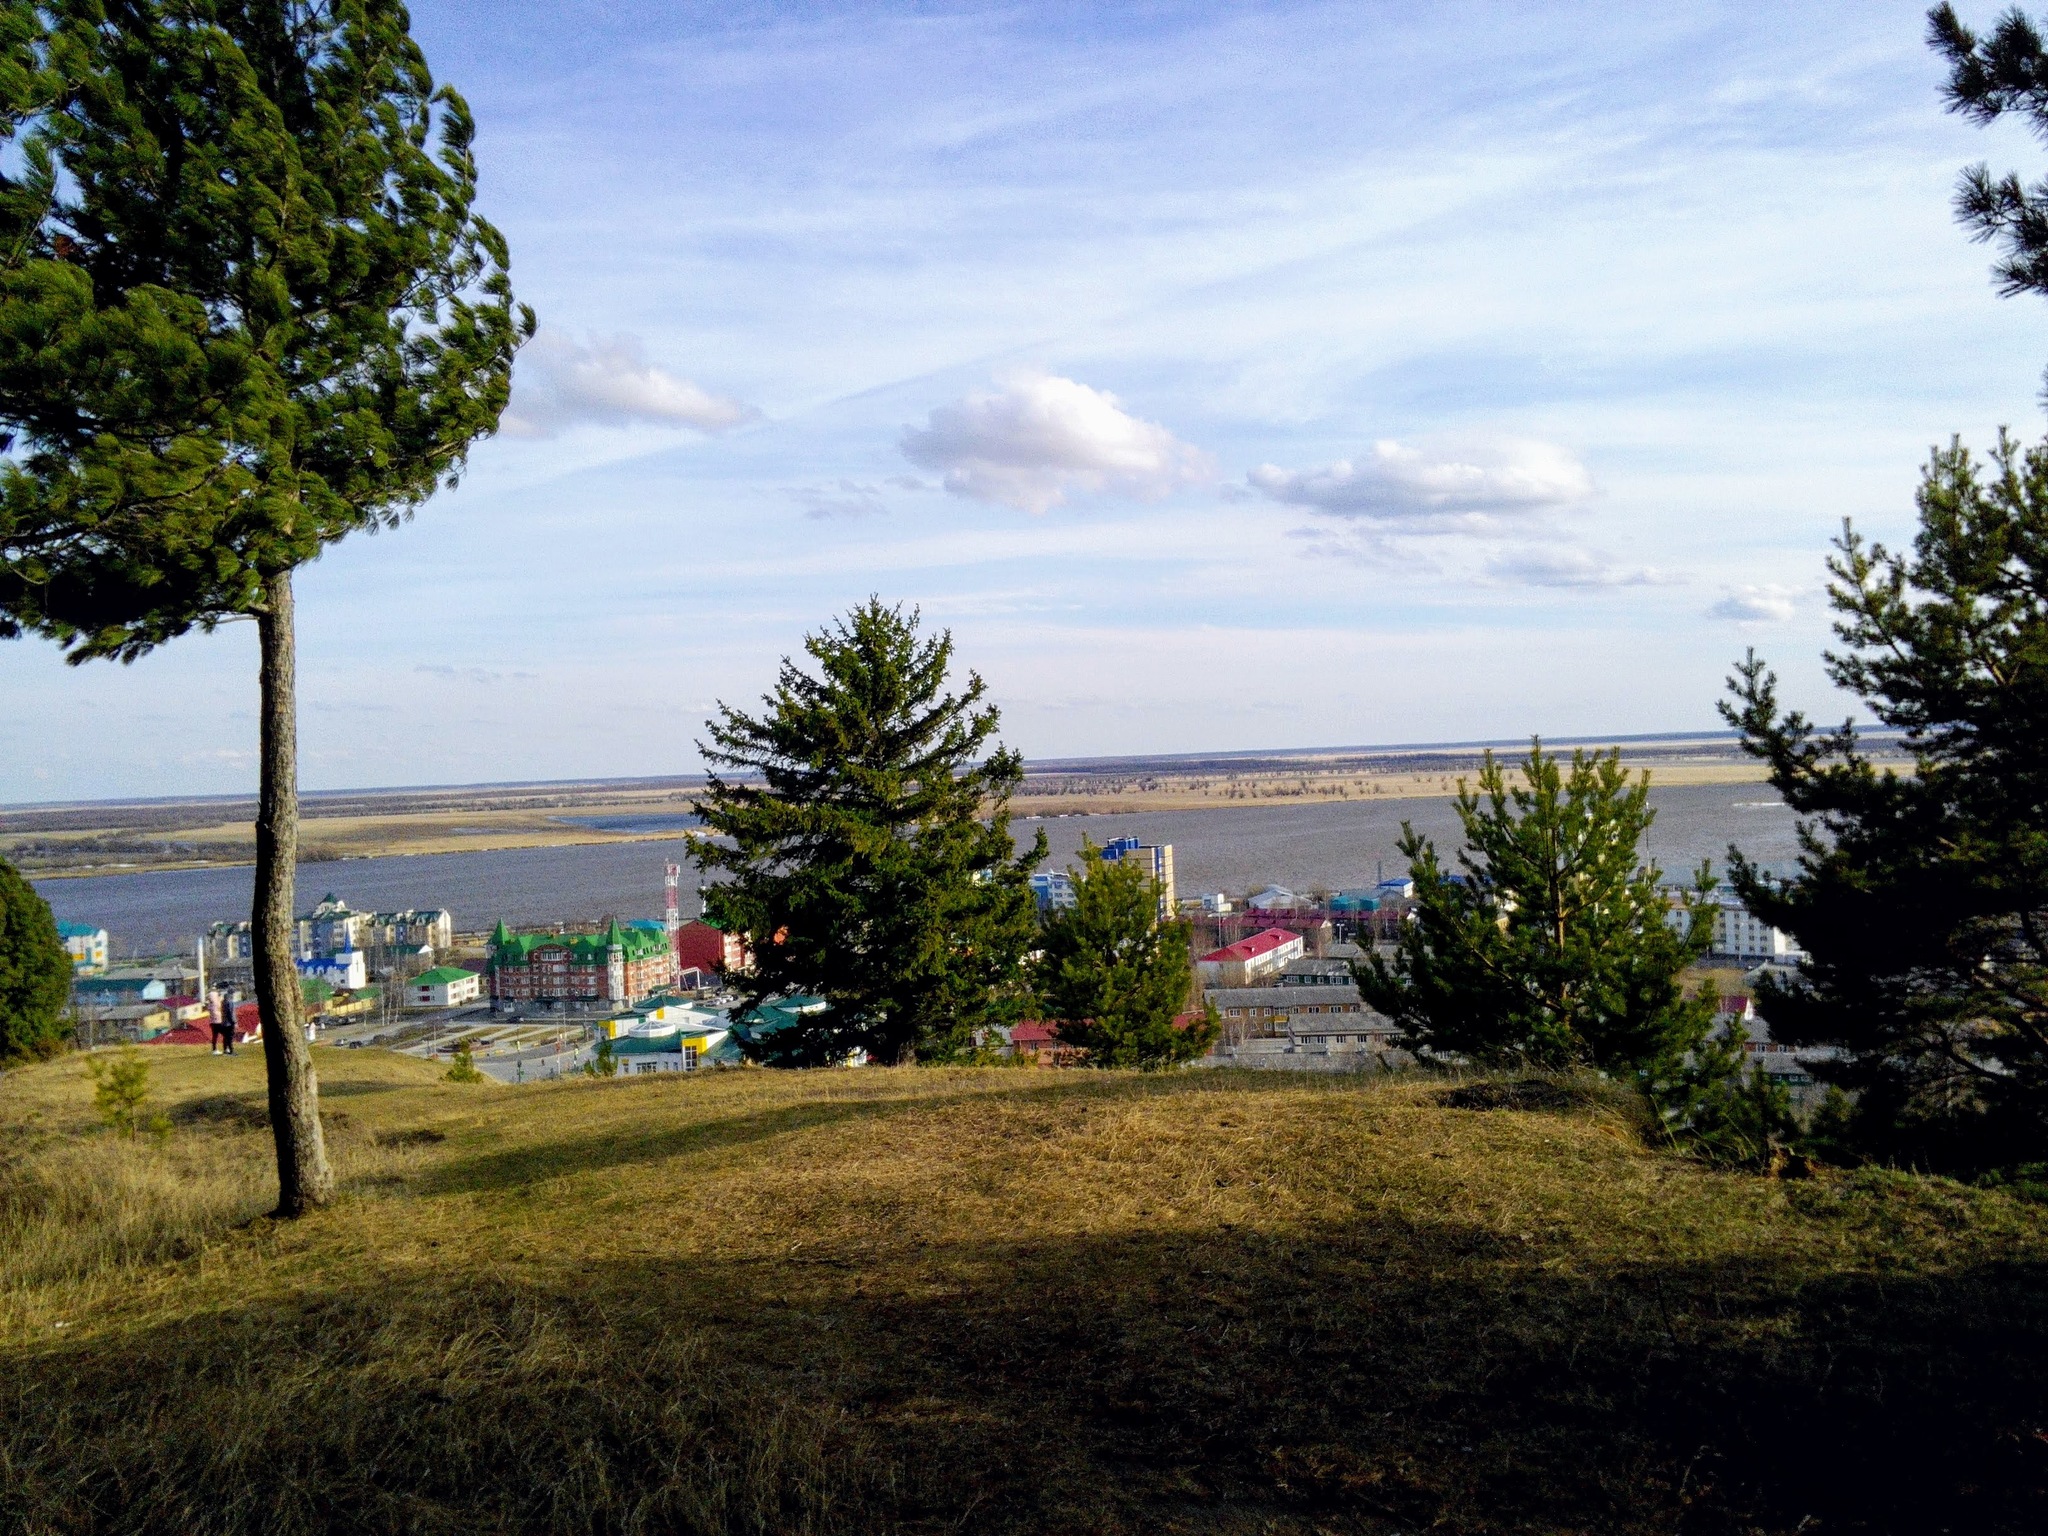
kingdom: Plantae
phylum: Tracheophyta
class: Pinopsida
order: Pinales
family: Pinaceae
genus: Pinus
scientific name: Pinus sylvestris
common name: Scots pine
